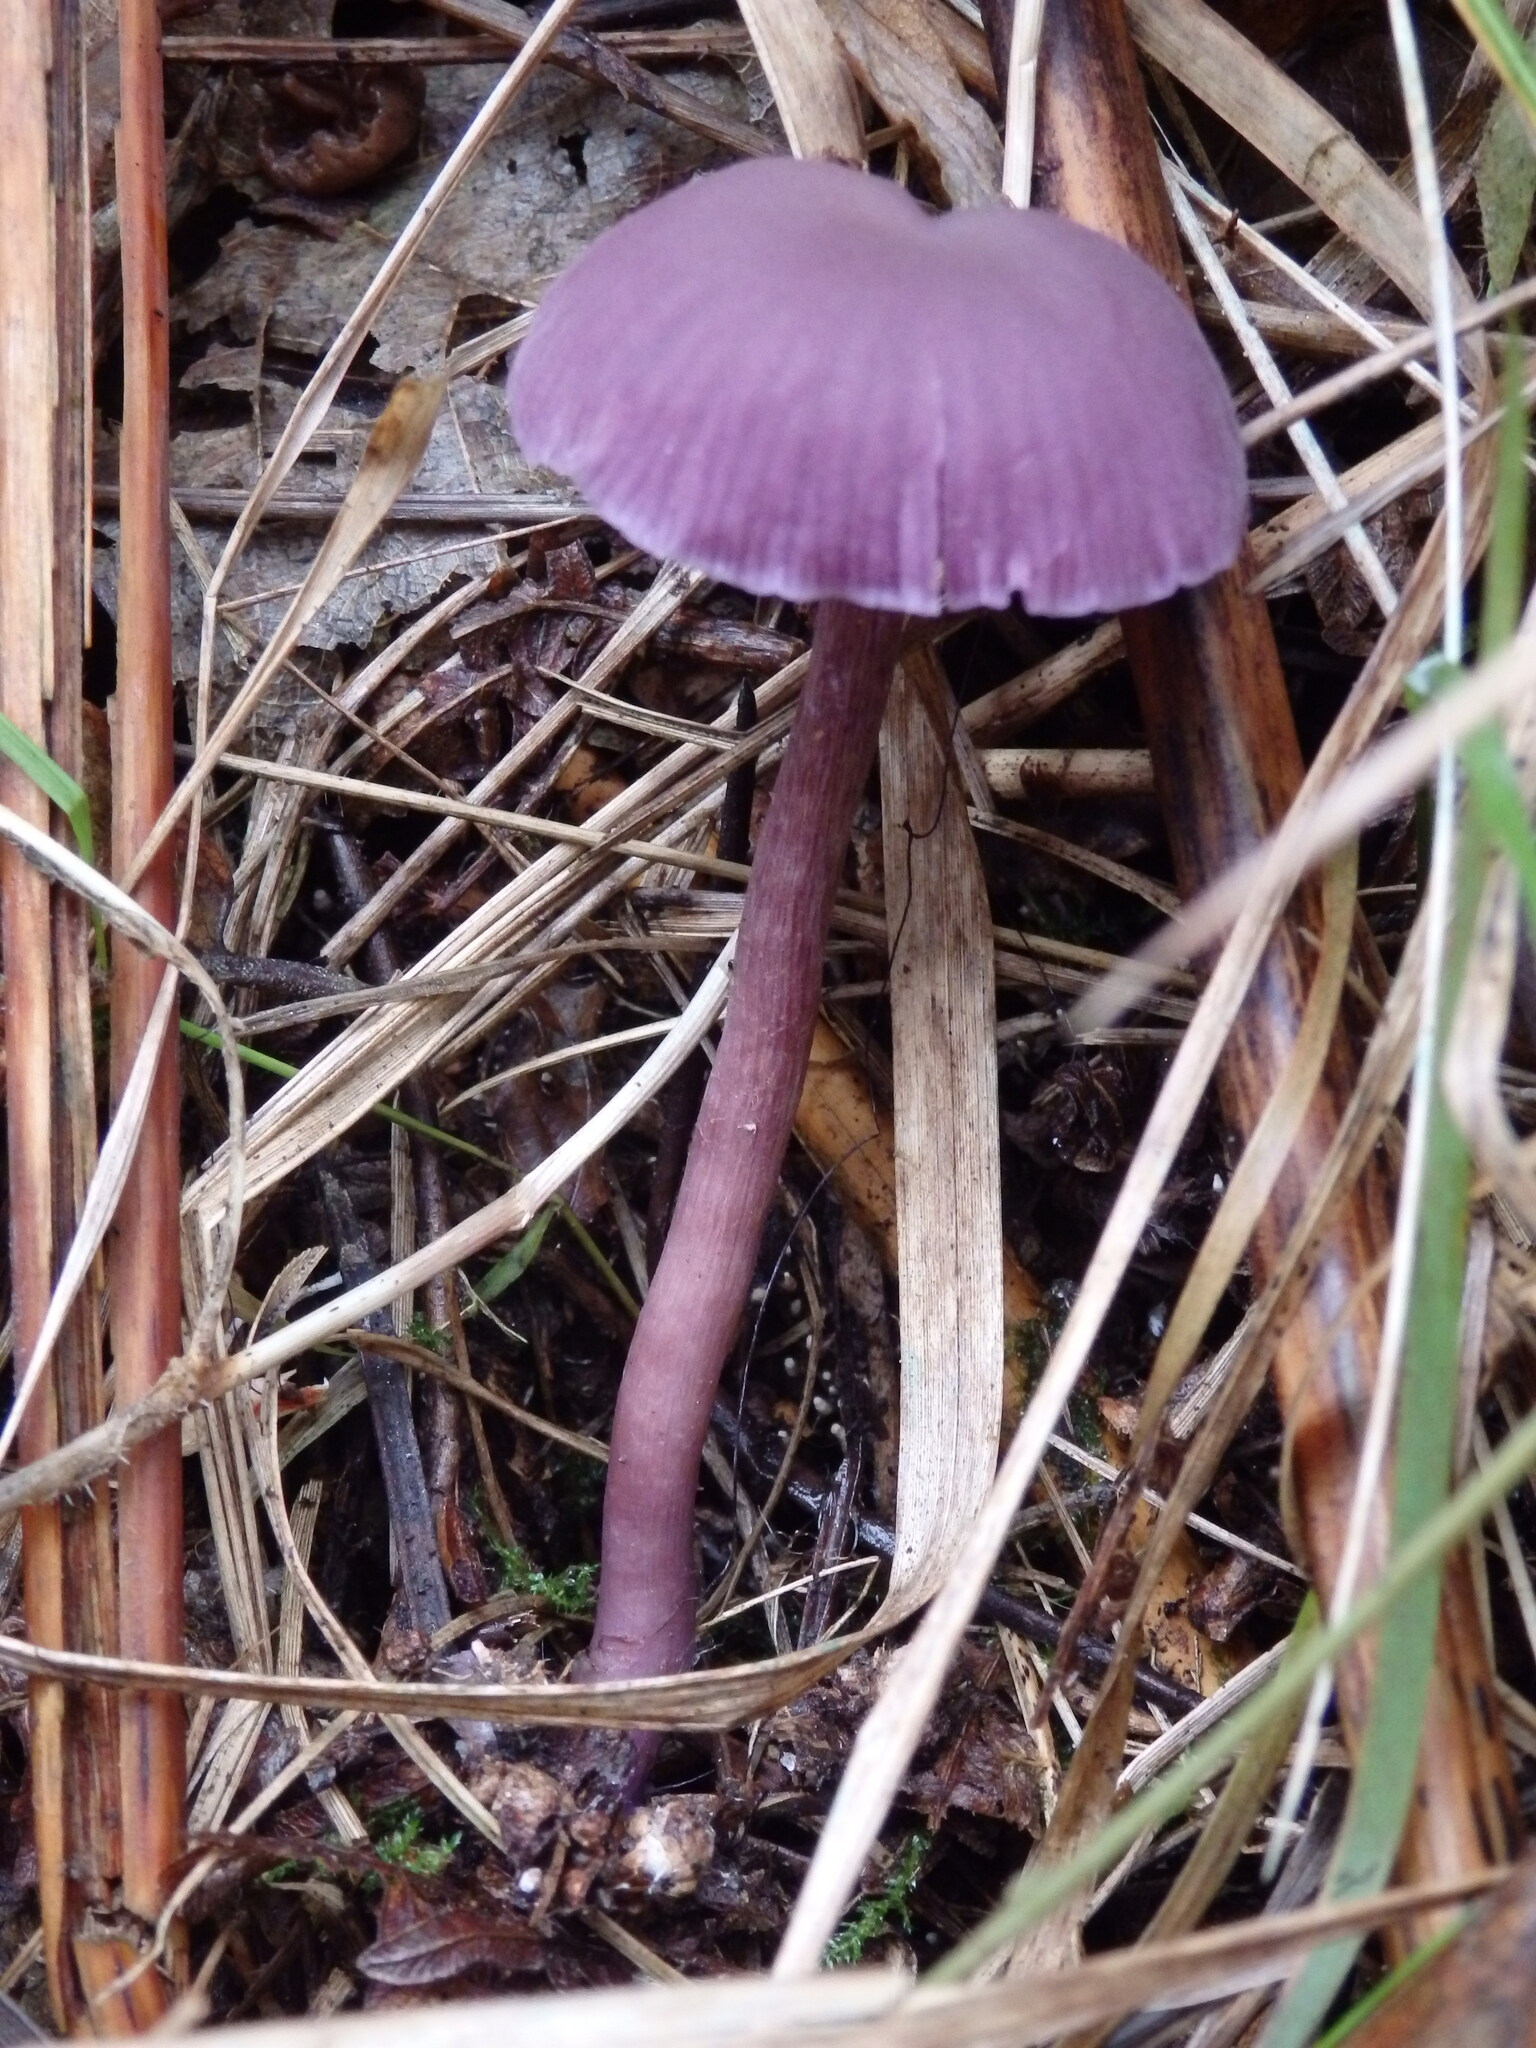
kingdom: Fungi
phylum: Basidiomycota
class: Agaricomycetes
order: Agaricales
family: Hydnangiaceae
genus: Laccaria
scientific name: Laccaria amethystina
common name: Amethyst deceiver
